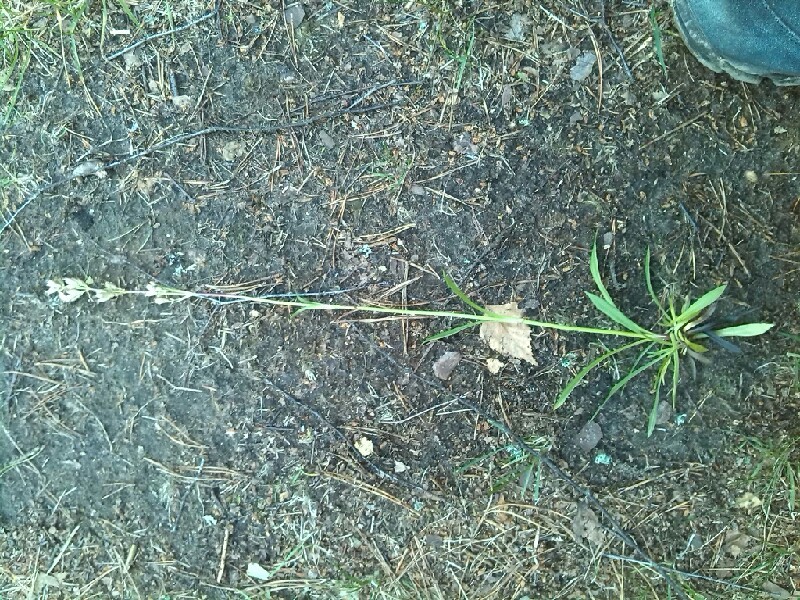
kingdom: Plantae
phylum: Tracheophyta
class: Magnoliopsida
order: Caryophyllales
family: Caryophyllaceae
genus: Viscaria
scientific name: Viscaria vulgaris
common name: Clammy campion
